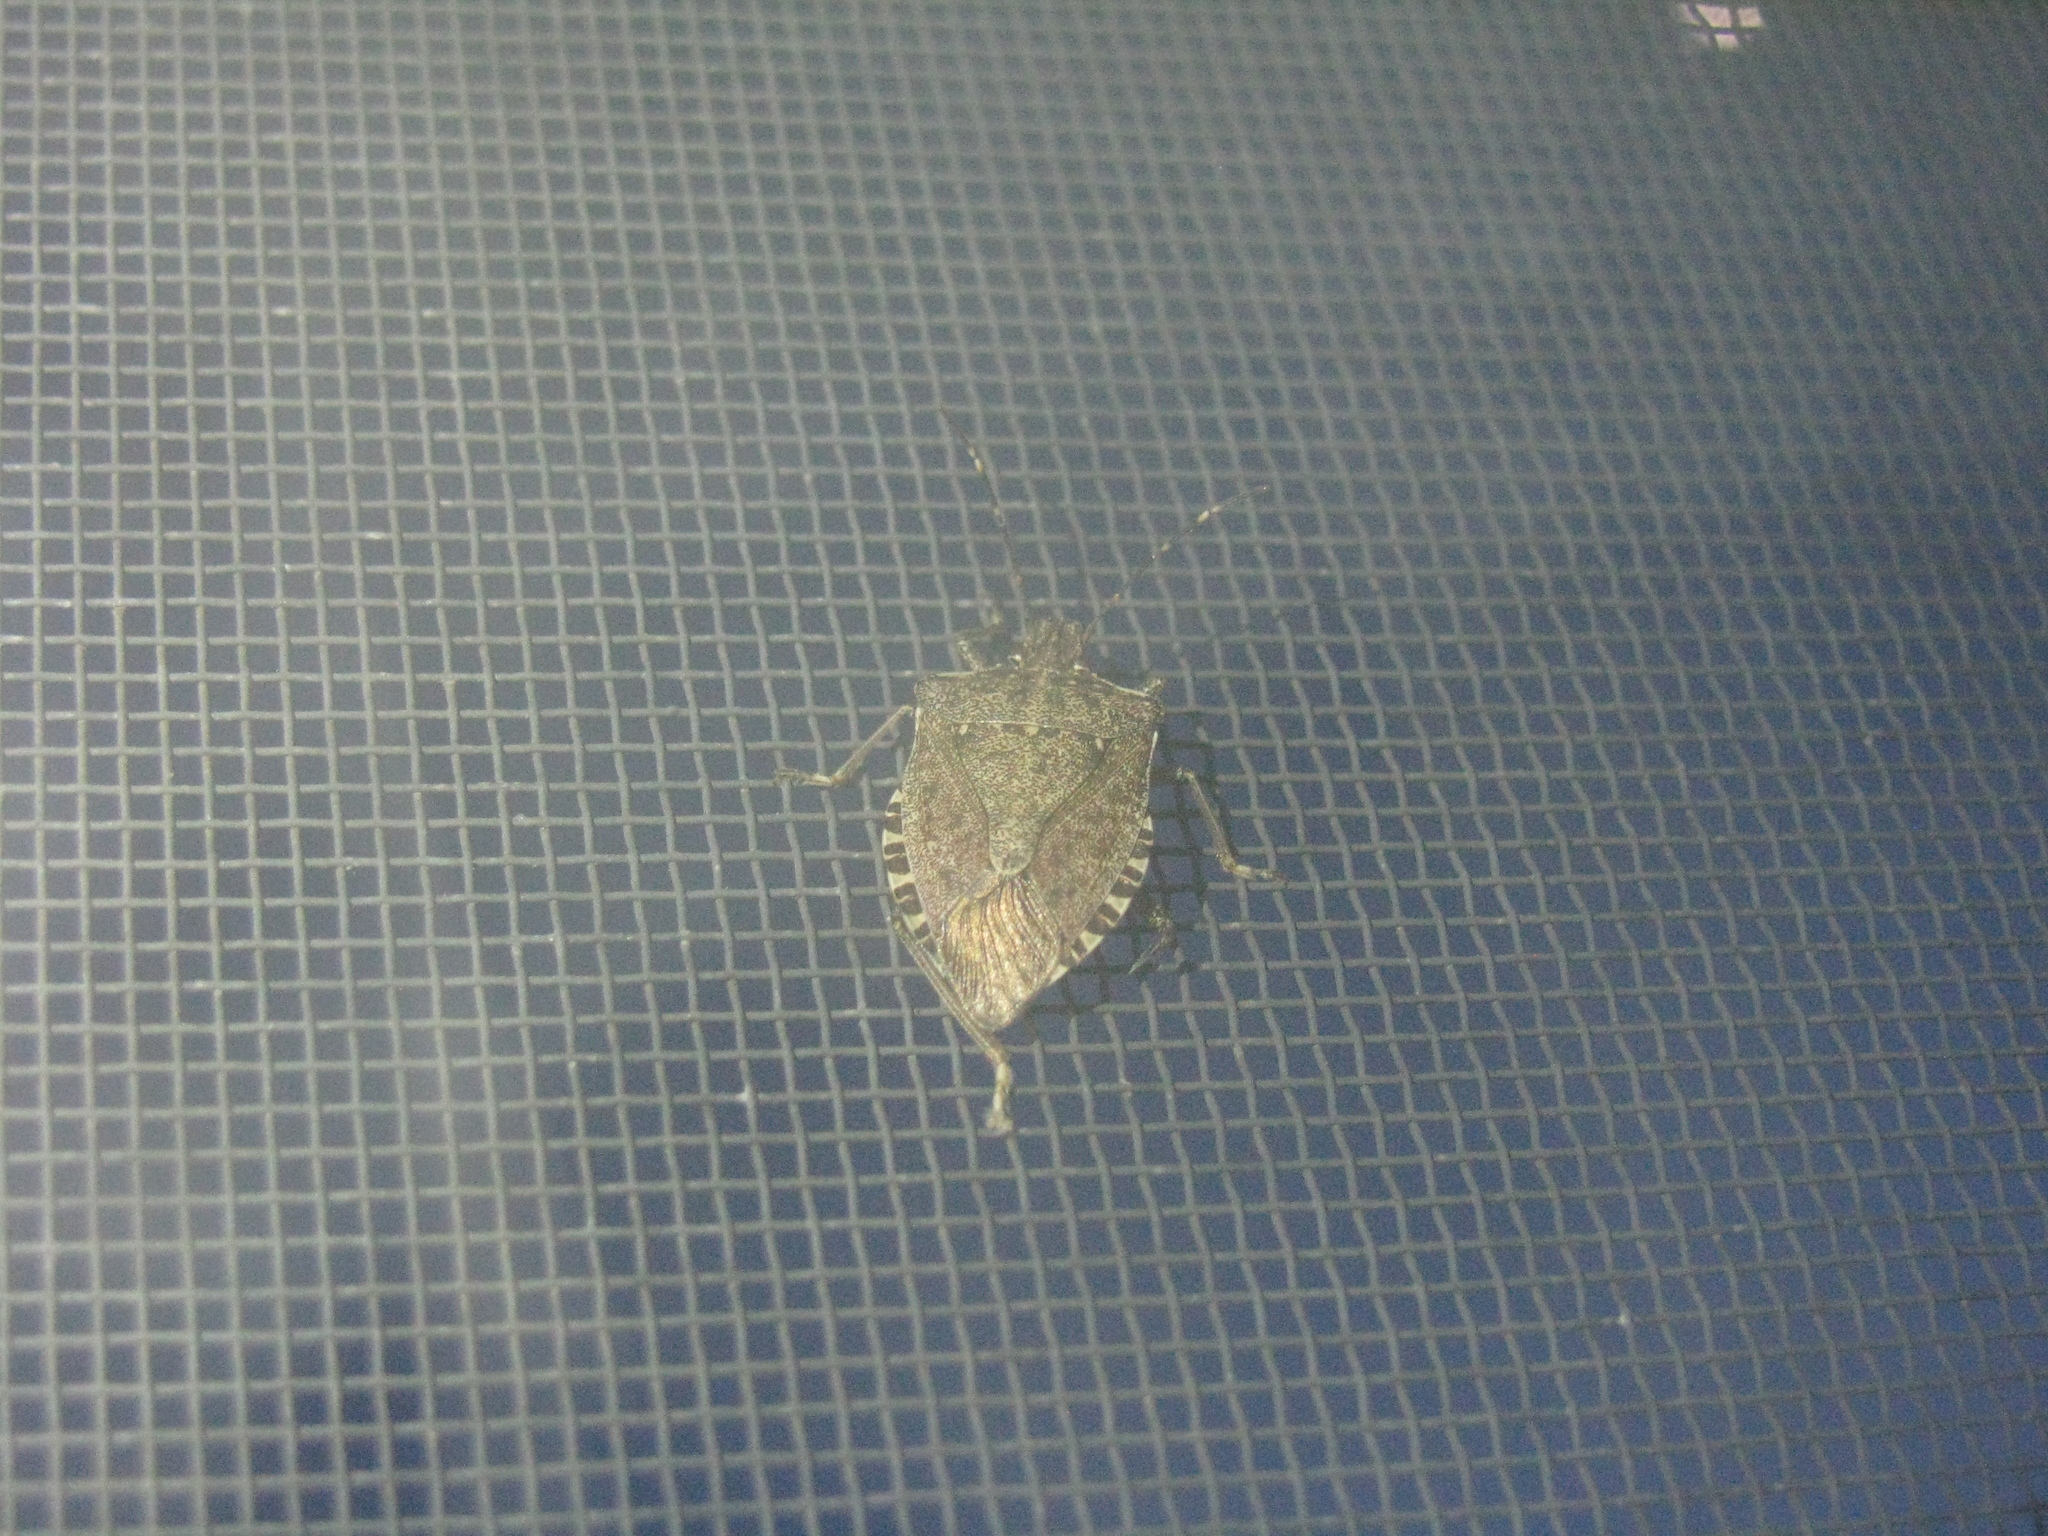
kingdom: Animalia
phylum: Arthropoda
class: Insecta
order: Hemiptera
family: Pentatomidae
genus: Halyomorpha
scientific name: Halyomorpha halys
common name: Brown marmorated stink bug
